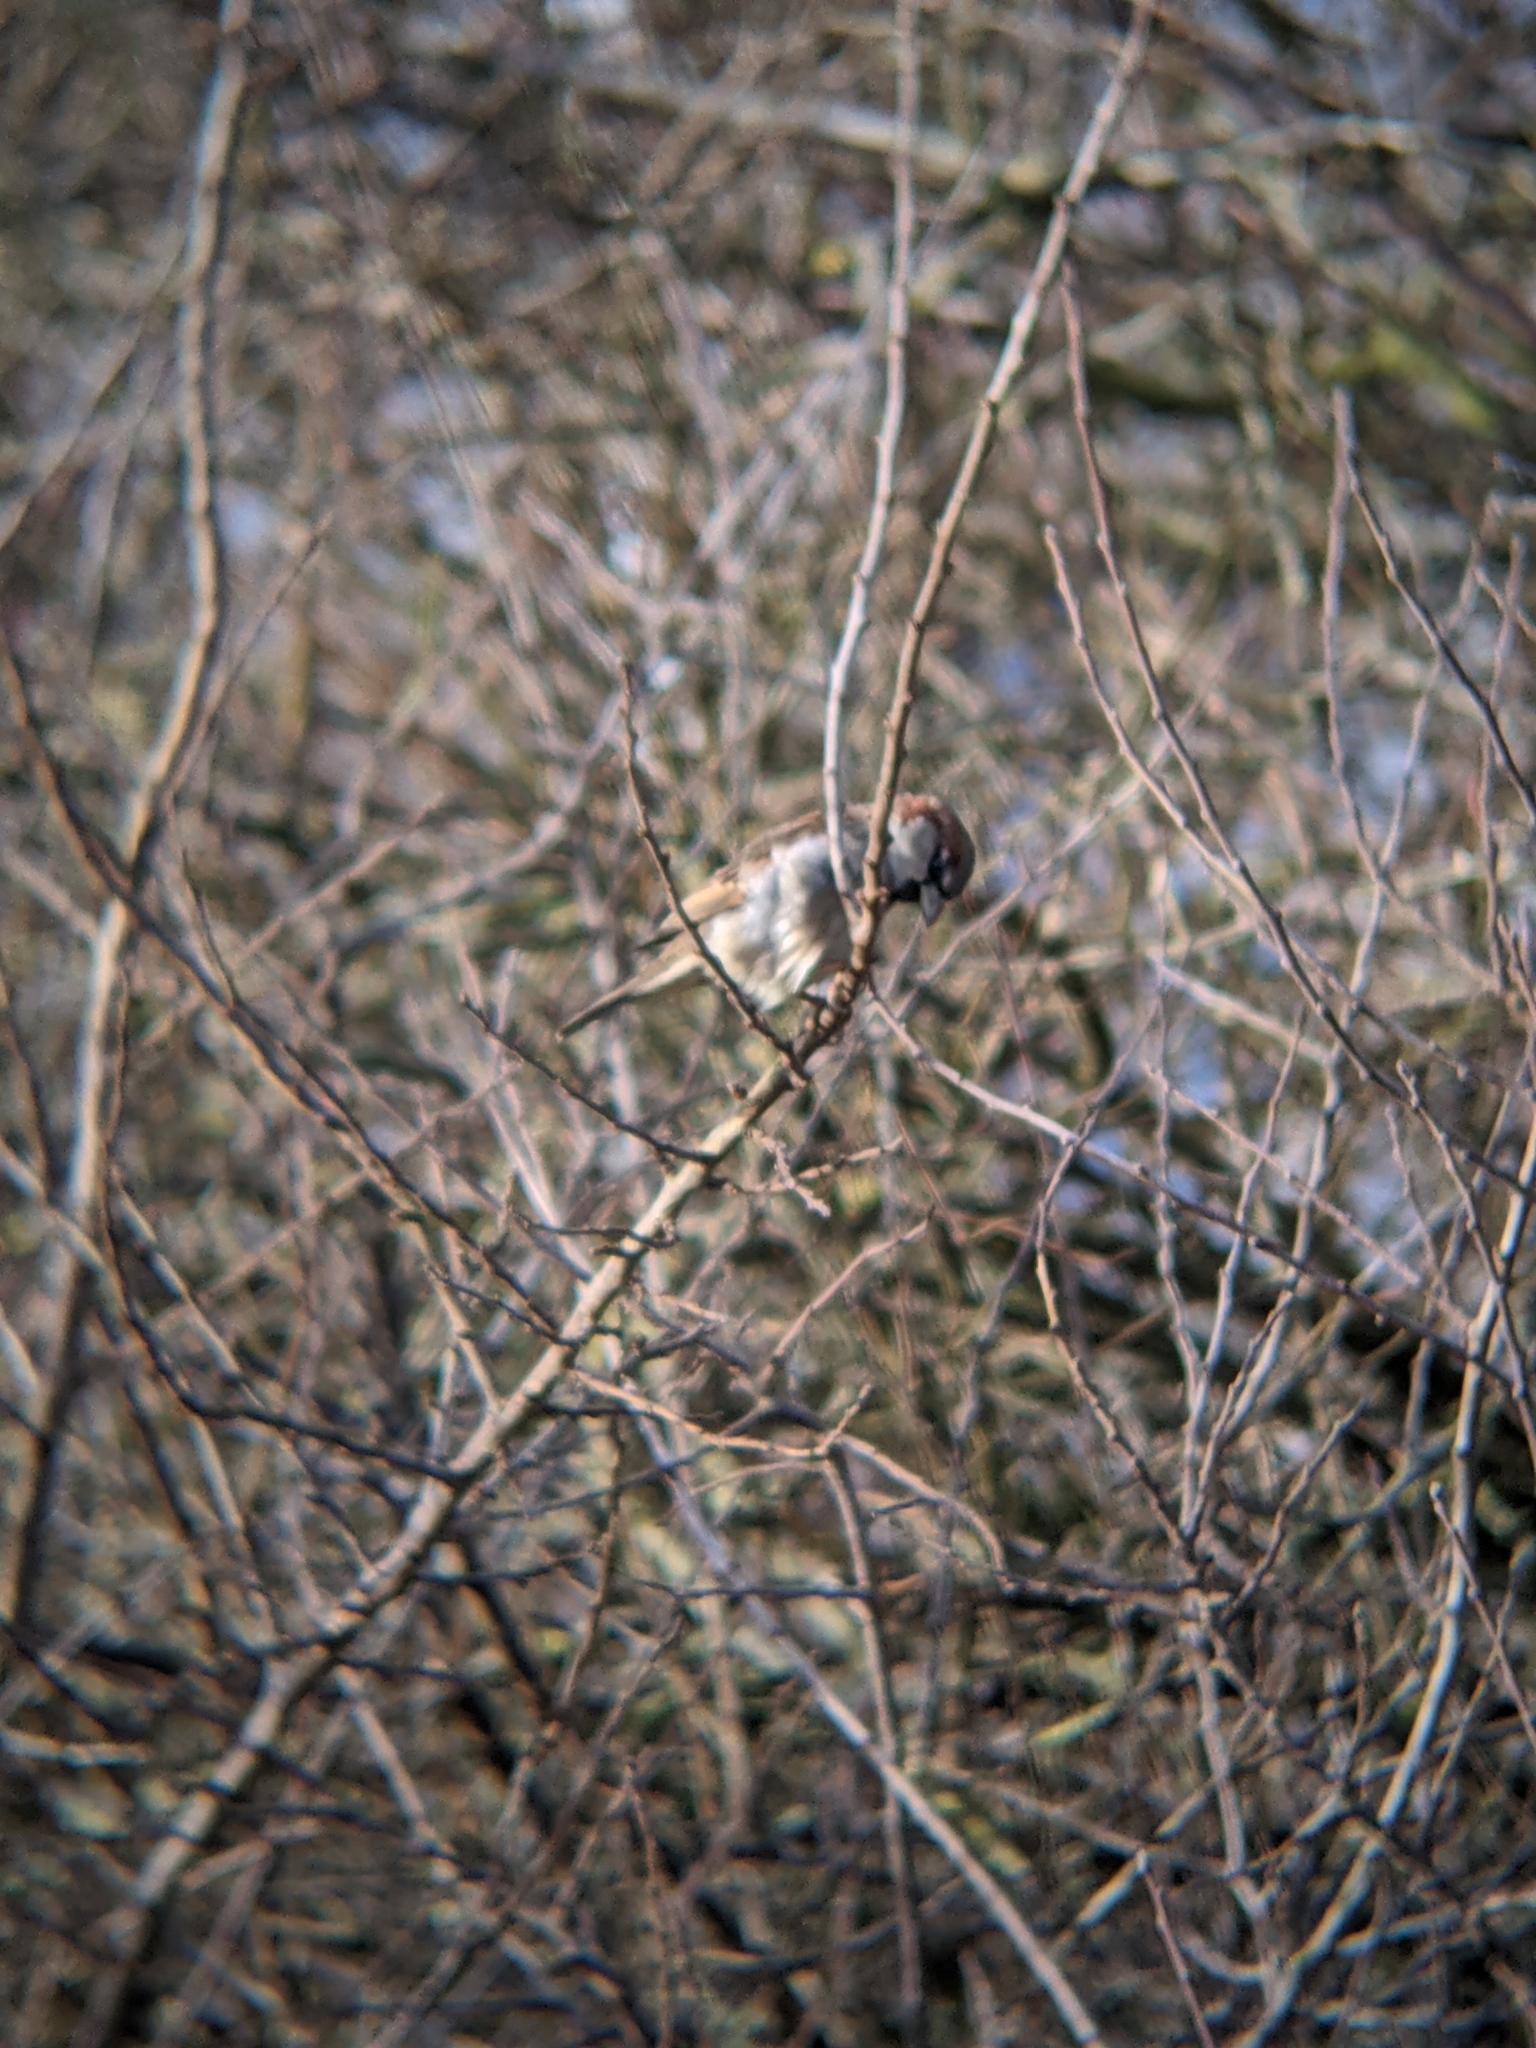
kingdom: Animalia
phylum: Chordata
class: Aves
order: Passeriformes
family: Passeridae
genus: Passer
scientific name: Passer domesticus
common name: House sparrow
